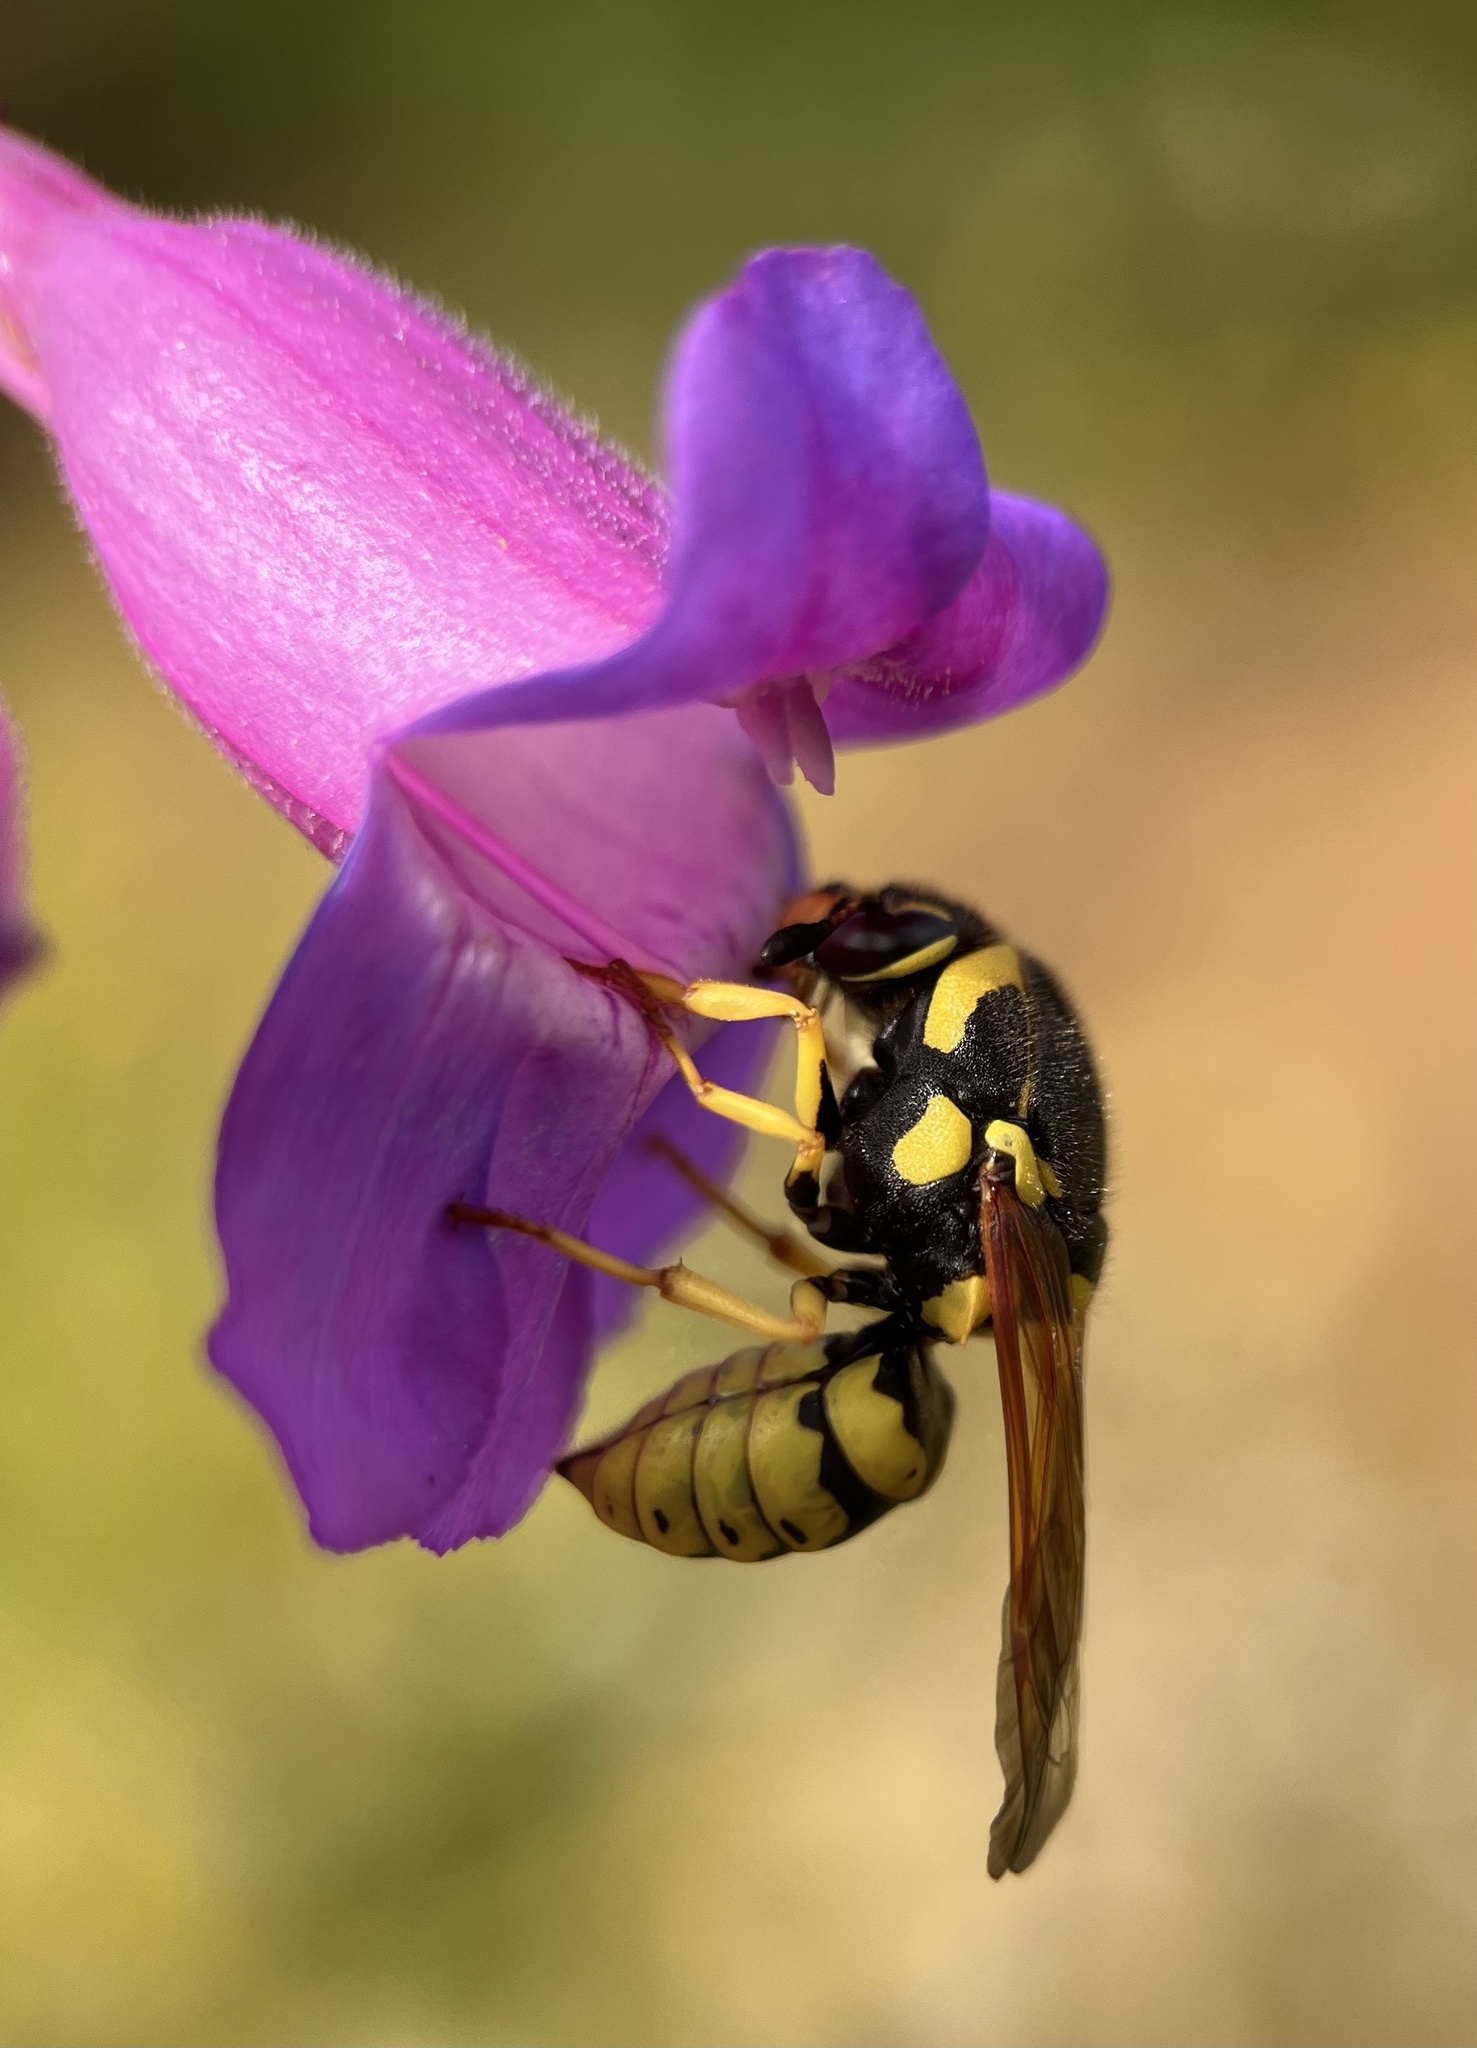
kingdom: Animalia
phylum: Arthropoda
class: Insecta
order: Hymenoptera
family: Masaridae
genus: Pseudomasaris
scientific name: Pseudomasaris vespoides
